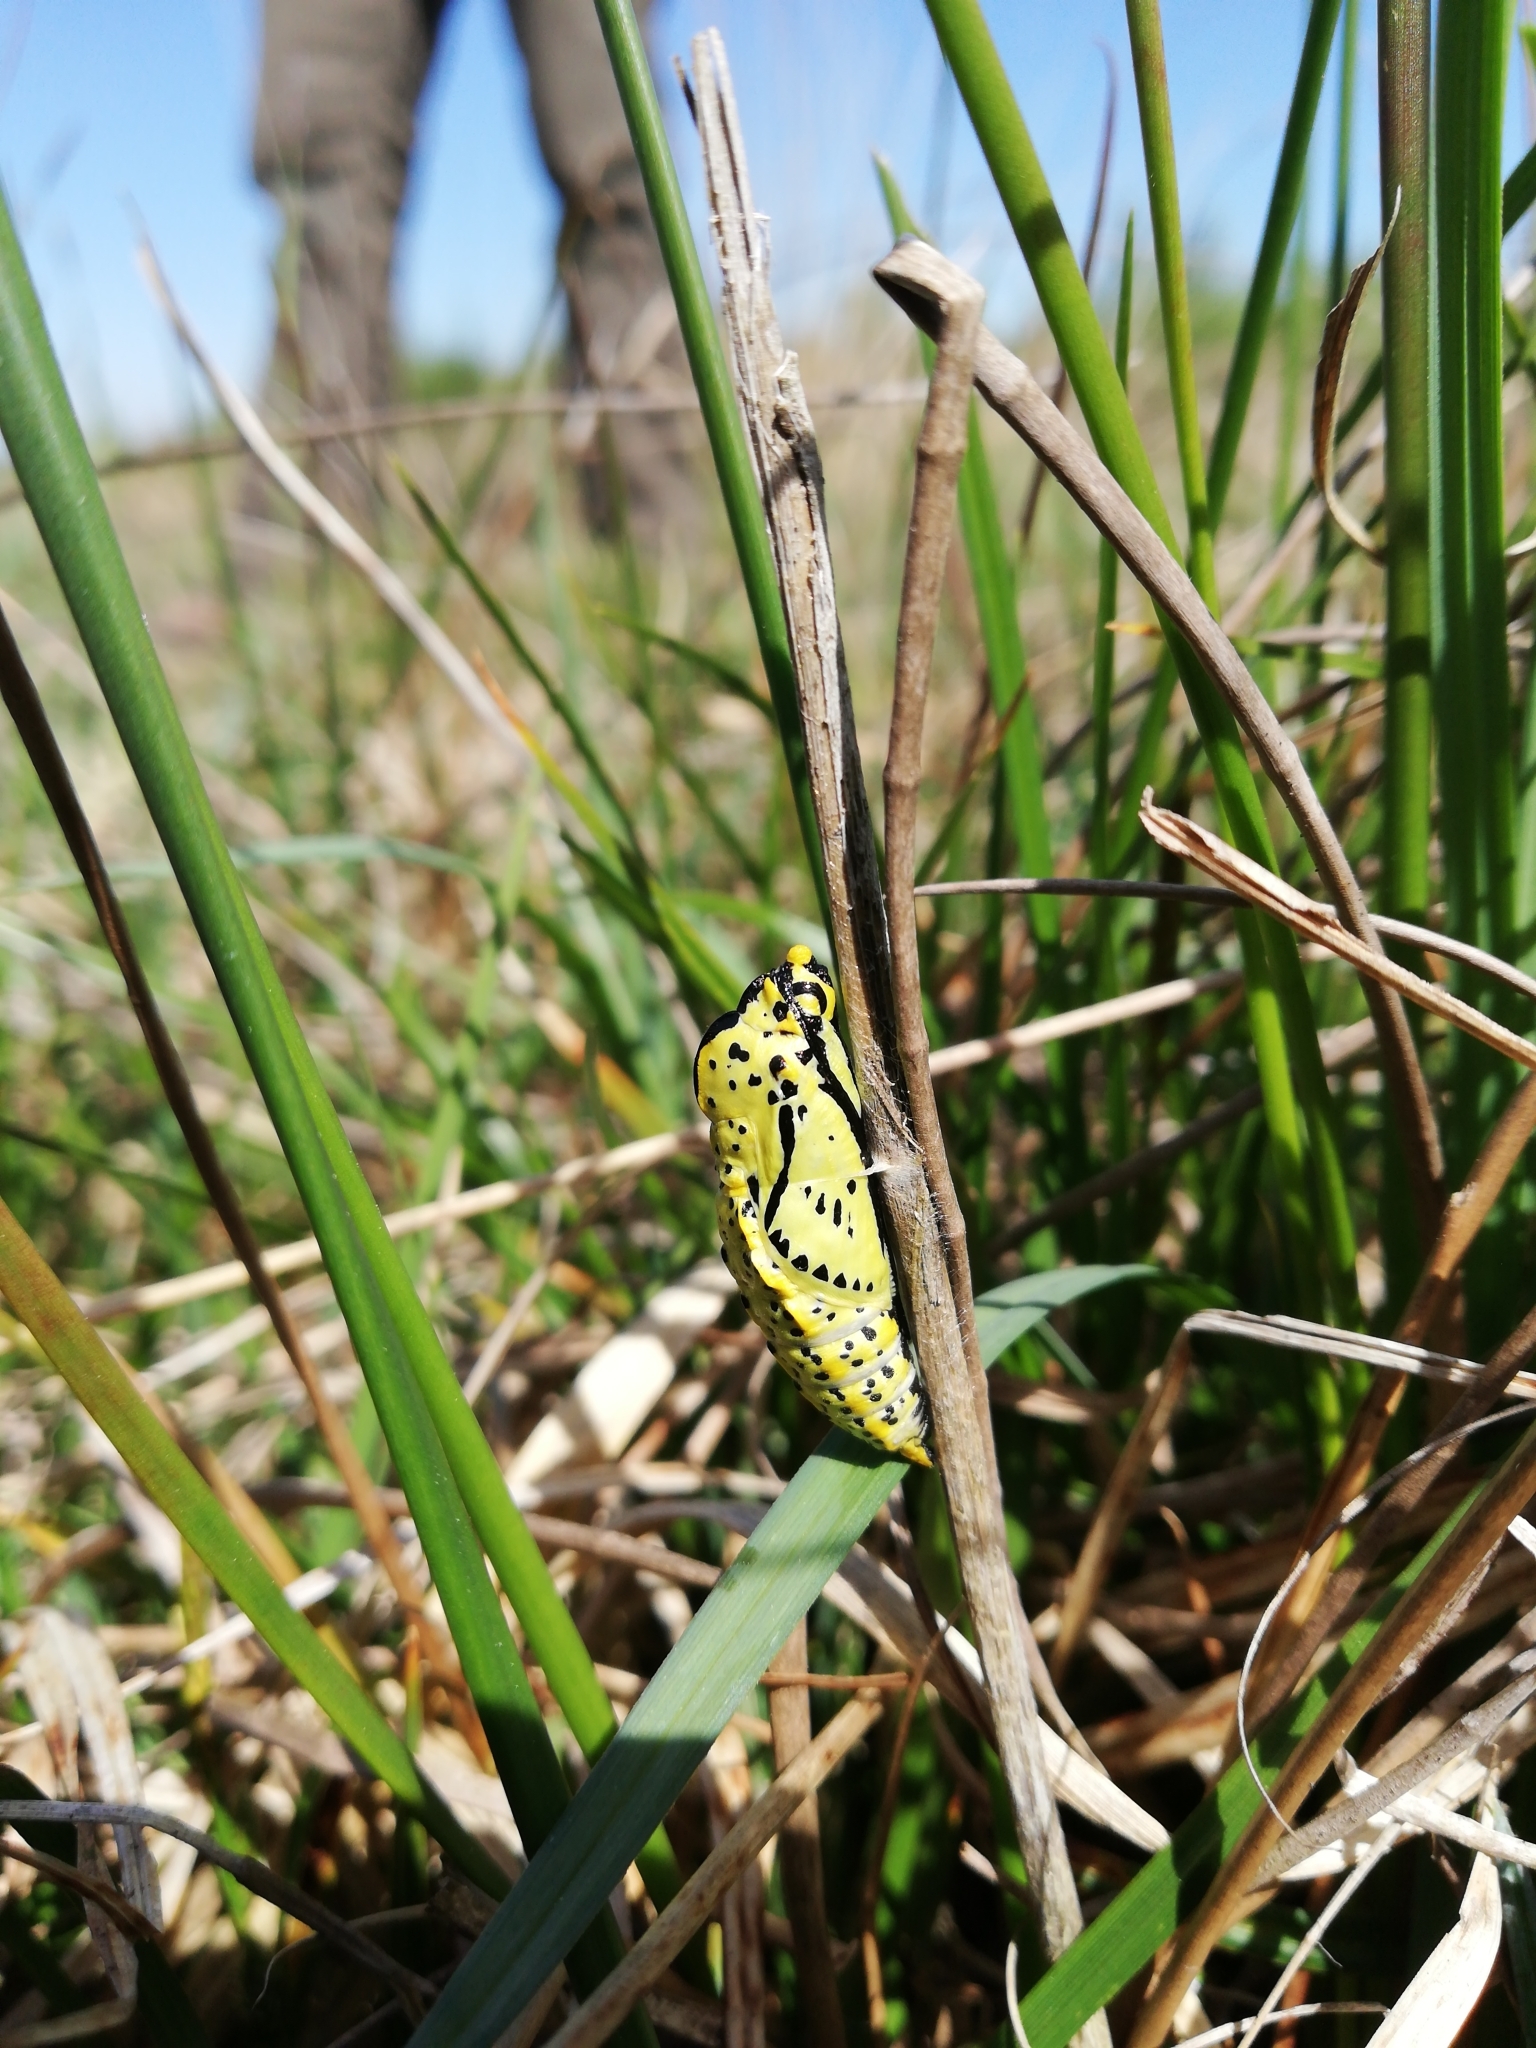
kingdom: Animalia
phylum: Arthropoda
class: Insecta
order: Lepidoptera
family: Pieridae
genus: Aporia
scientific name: Aporia crataegi
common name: Black-veined white
